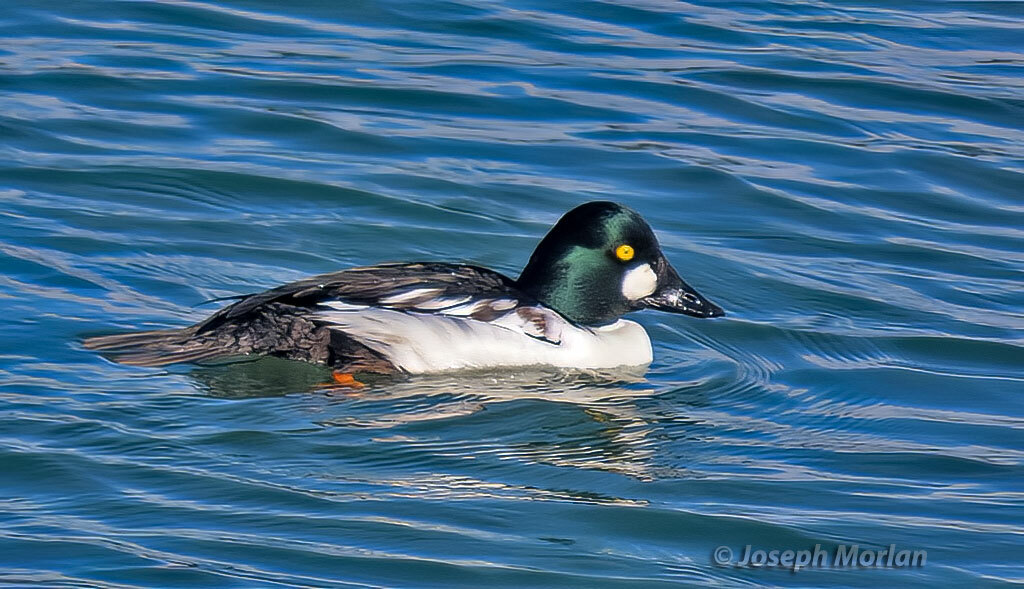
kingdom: Animalia
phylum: Chordata
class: Aves
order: Anseriformes
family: Anatidae
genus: Bucephala
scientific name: Bucephala clangula
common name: Common goldeneye
